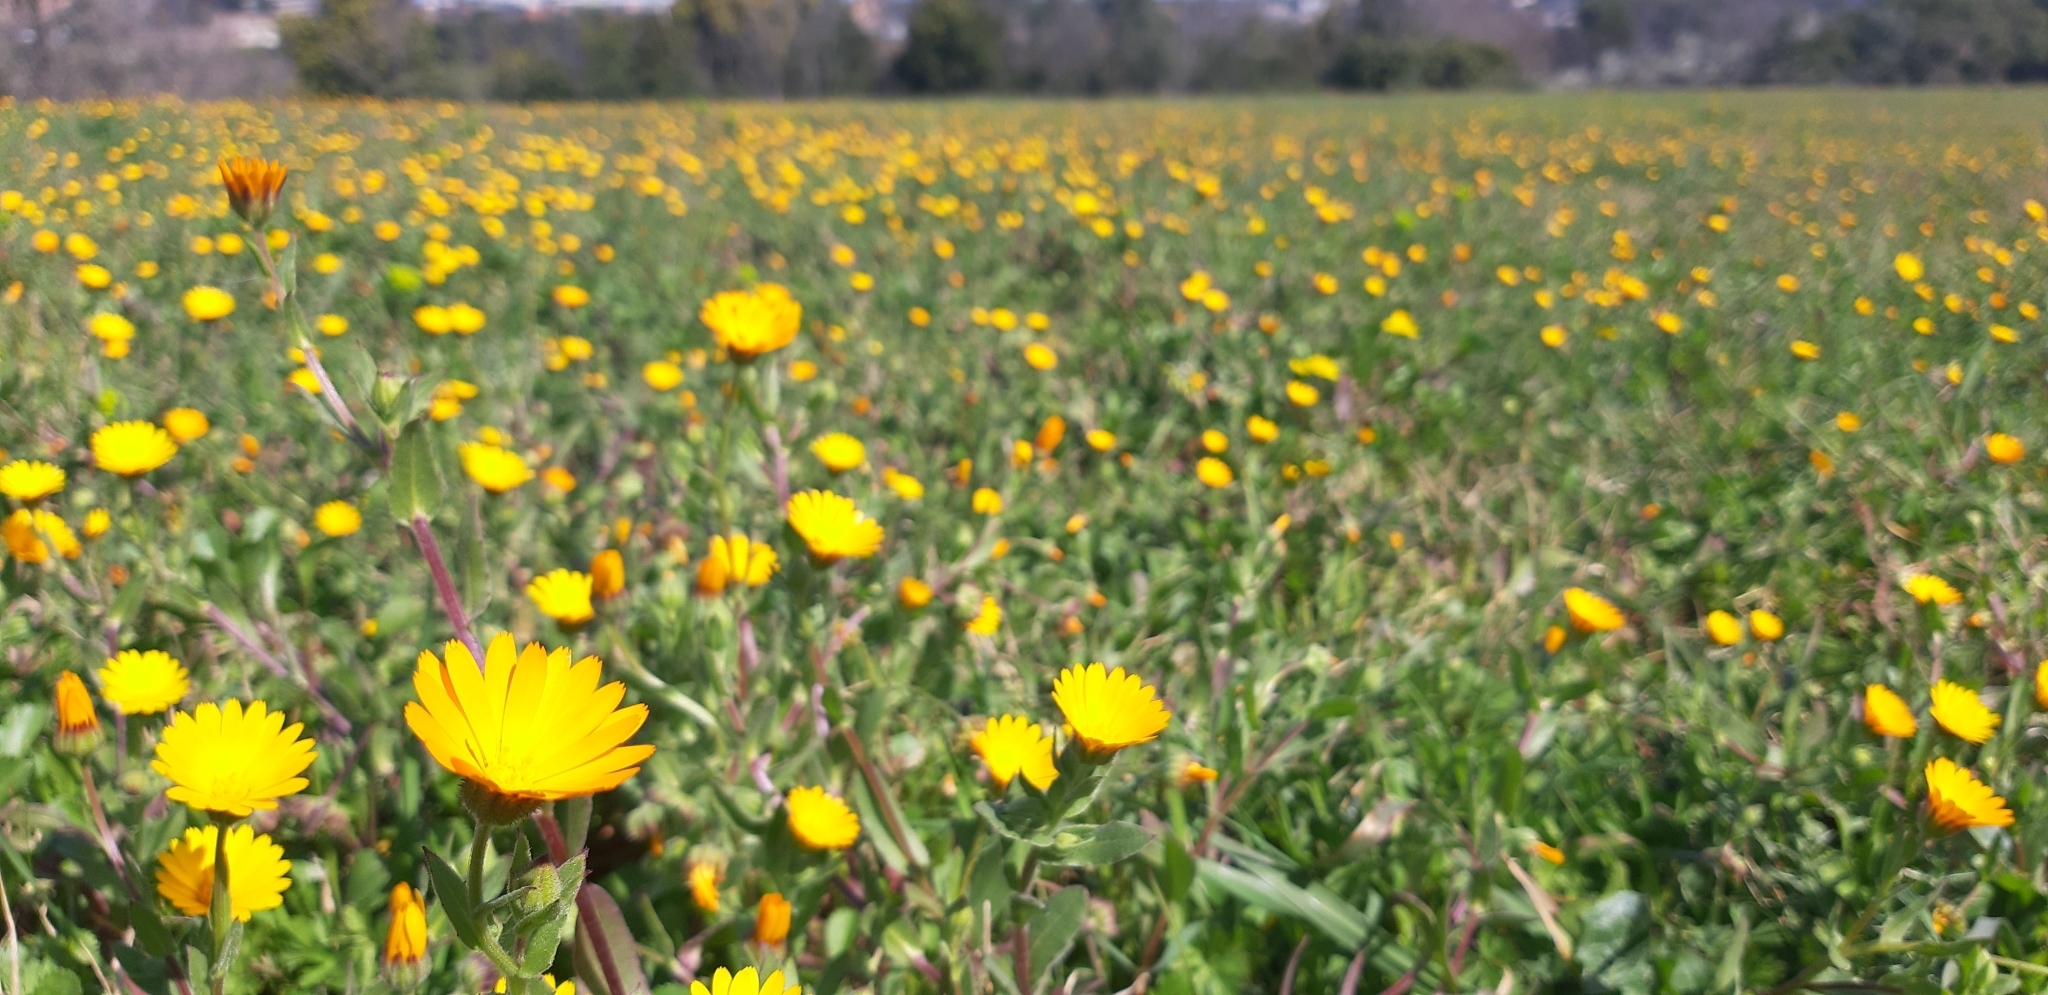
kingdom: Plantae
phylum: Tracheophyta
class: Magnoliopsida
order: Asterales
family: Asteraceae
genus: Calendula
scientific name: Calendula arvensis
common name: Field marigold
